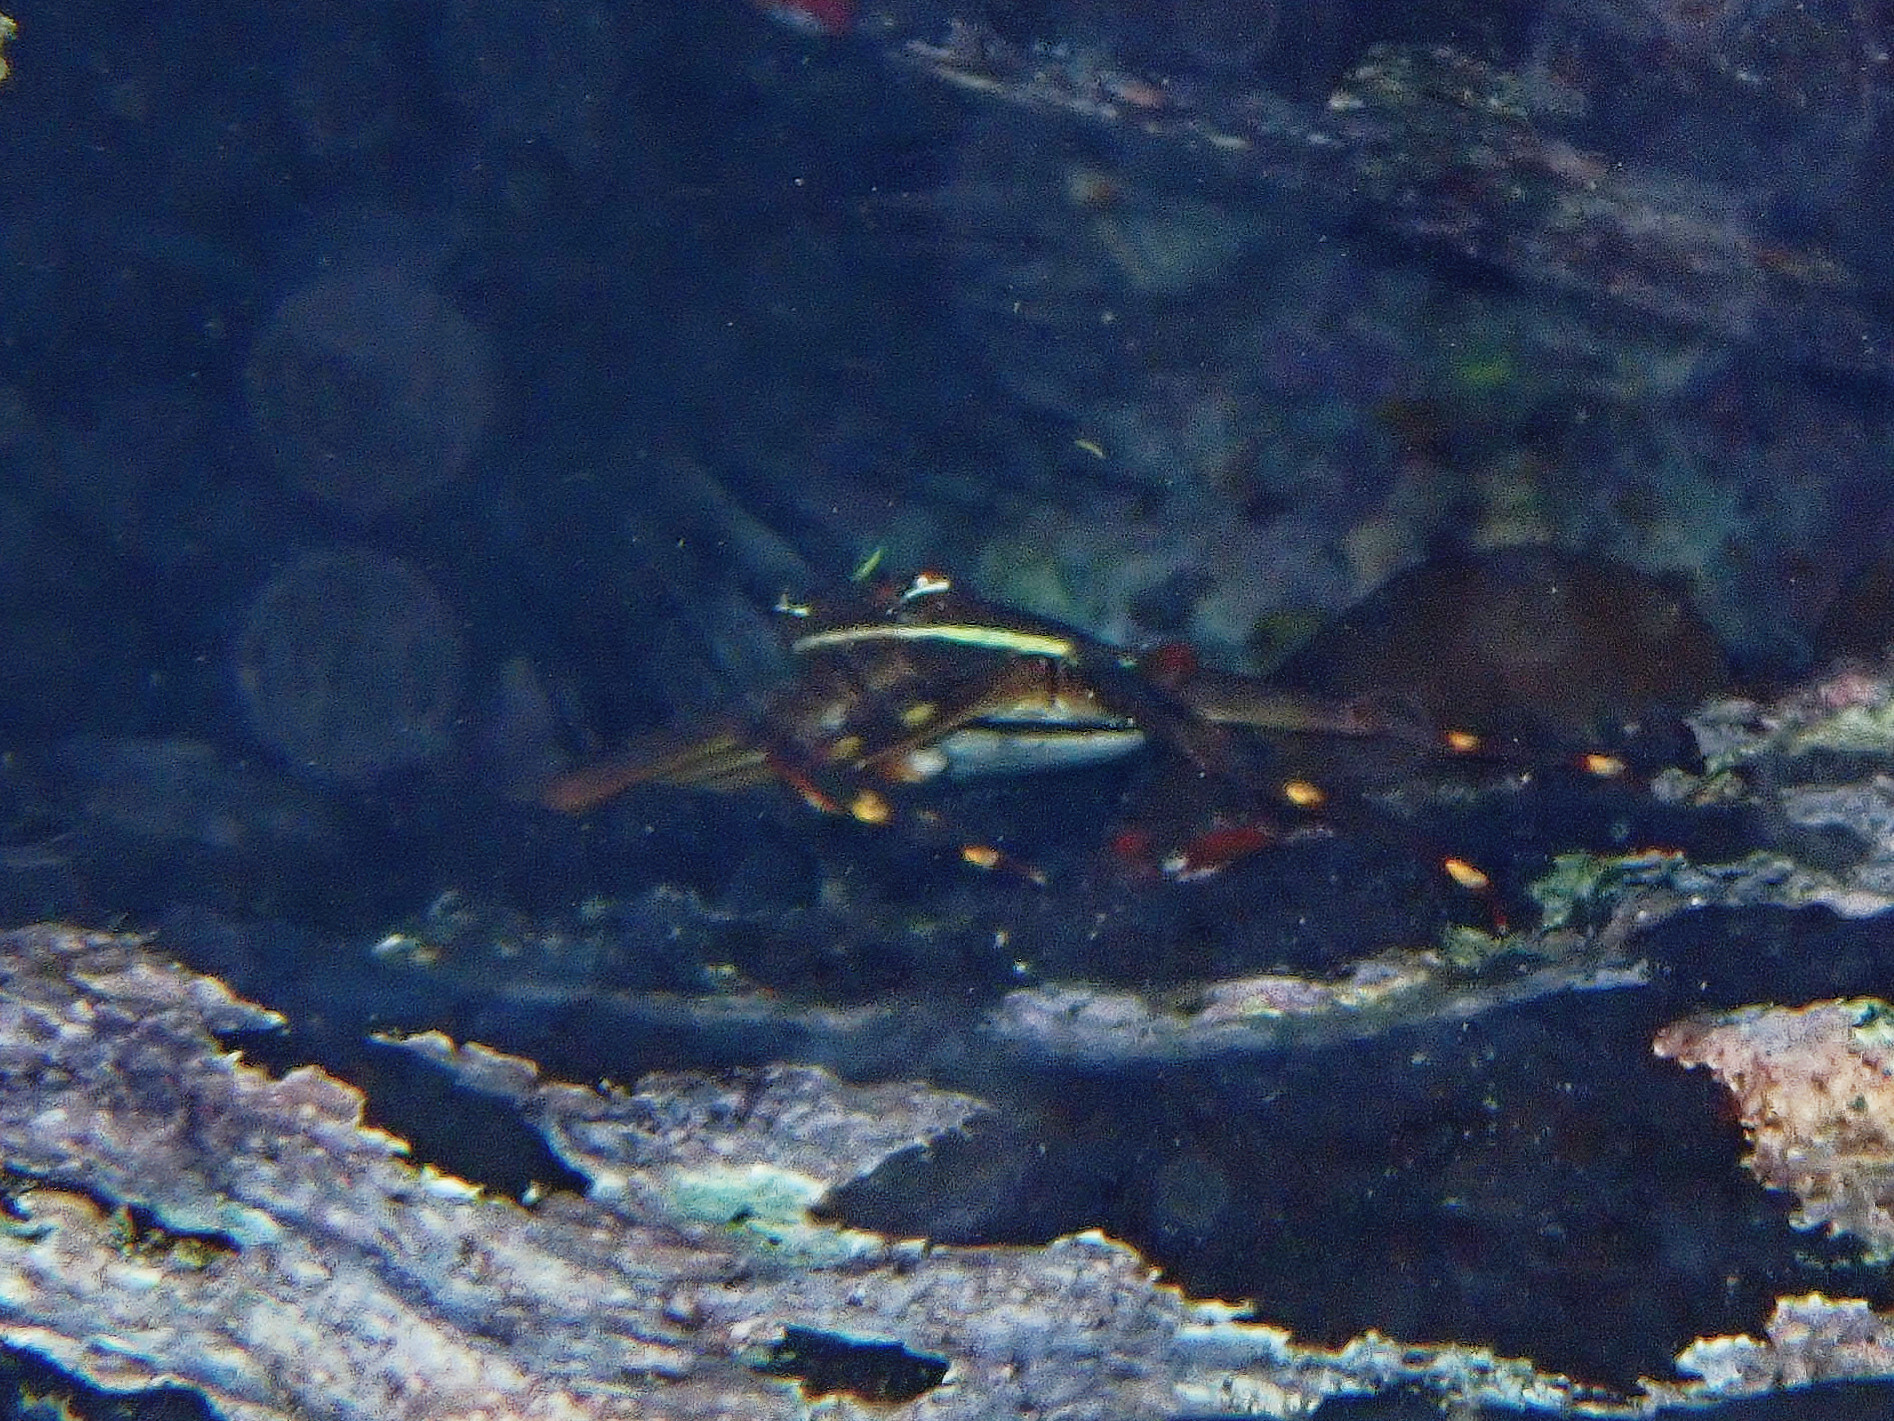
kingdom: Animalia
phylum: Arthropoda
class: Malacostraca
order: Decapoda
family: Percnidae
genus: Percnon
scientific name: Percnon gibbesi
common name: Nimble spray crab
